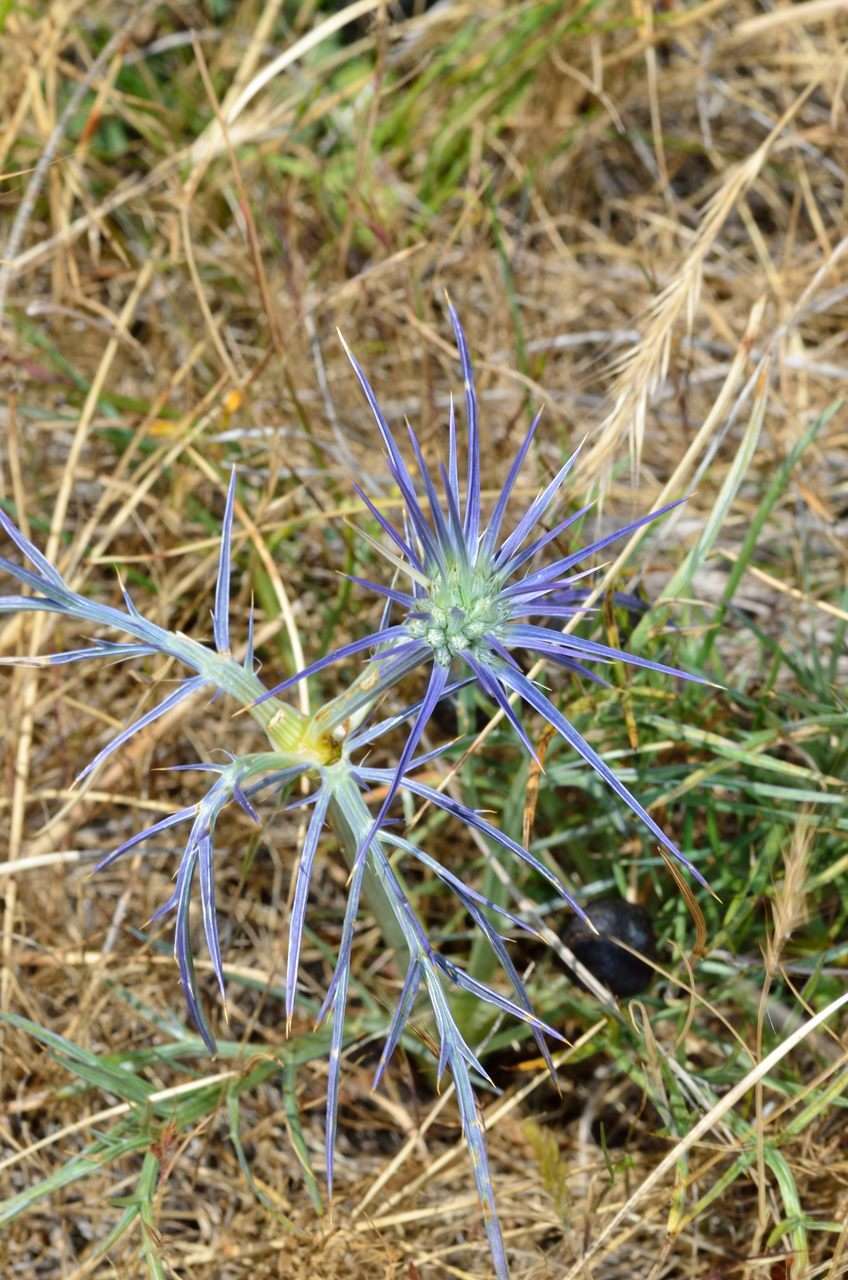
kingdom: Plantae
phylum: Tracheophyta
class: Magnoliopsida
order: Apiales
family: Apiaceae
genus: Eryngium
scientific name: Eryngium ovinum
